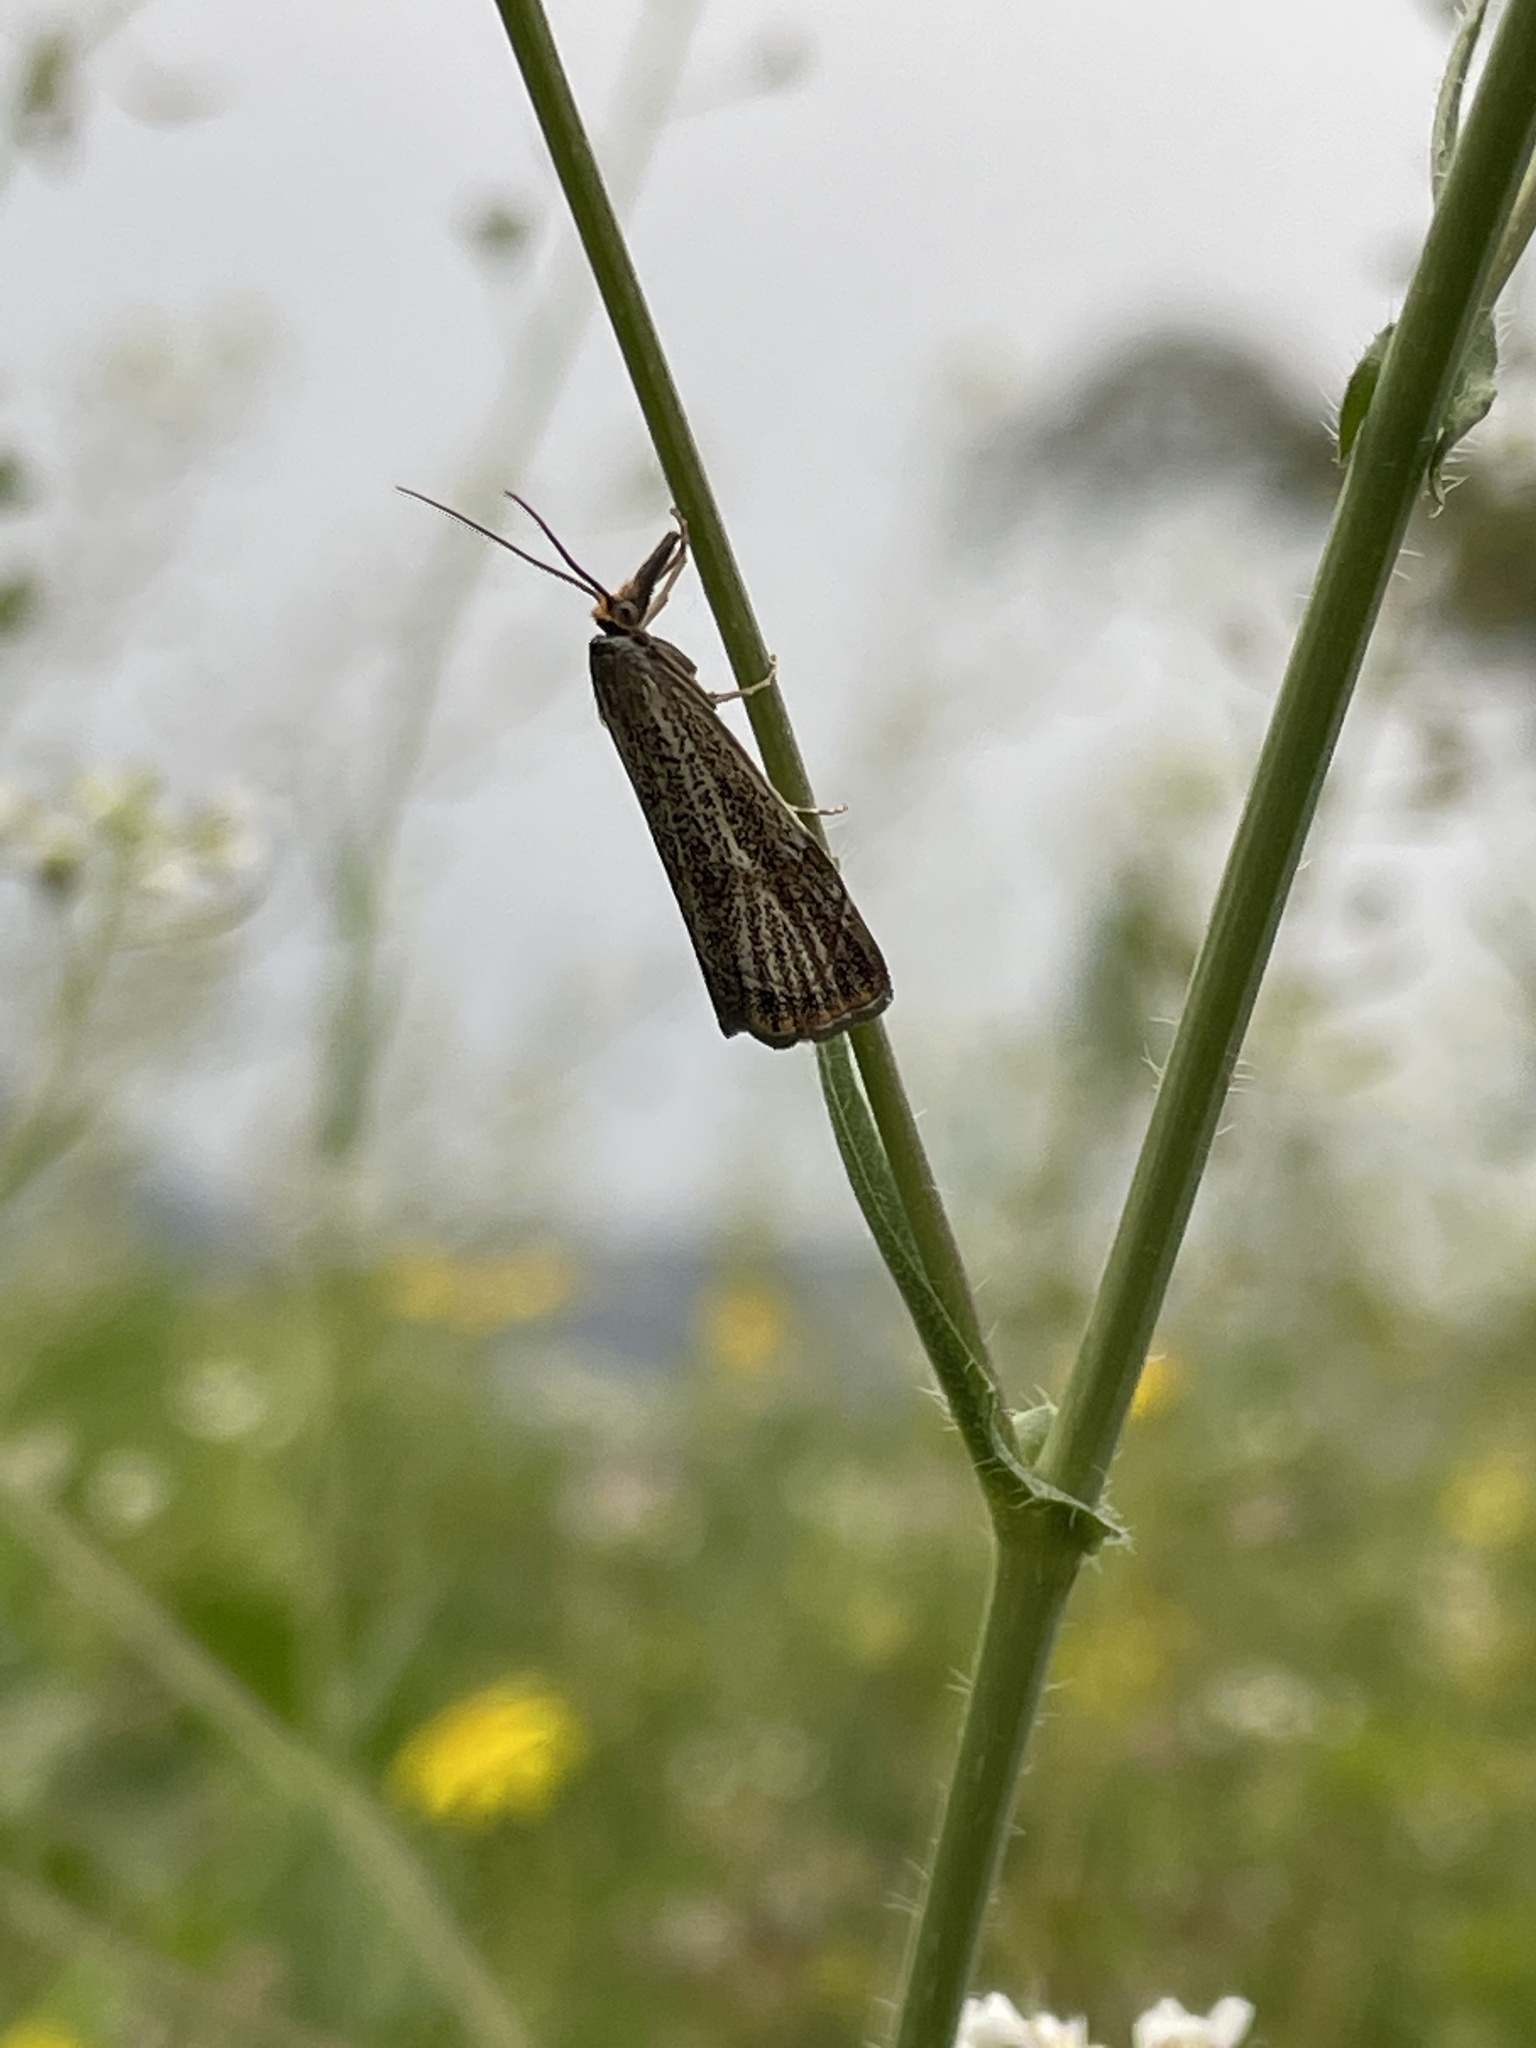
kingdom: Animalia
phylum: Arthropoda
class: Insecta
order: Lepidoptera
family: Crambidae
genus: Thisanotia
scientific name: Thisanotia chrysonuchella
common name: Powdered grass-veneer
